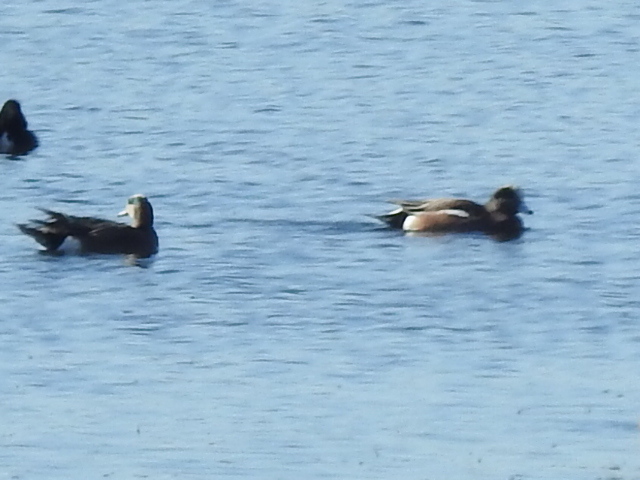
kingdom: Animalia
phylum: Chordata
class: Aves
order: Anseriformes
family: Anatidae
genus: Mareca
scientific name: Mareca americana
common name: American wigeon
